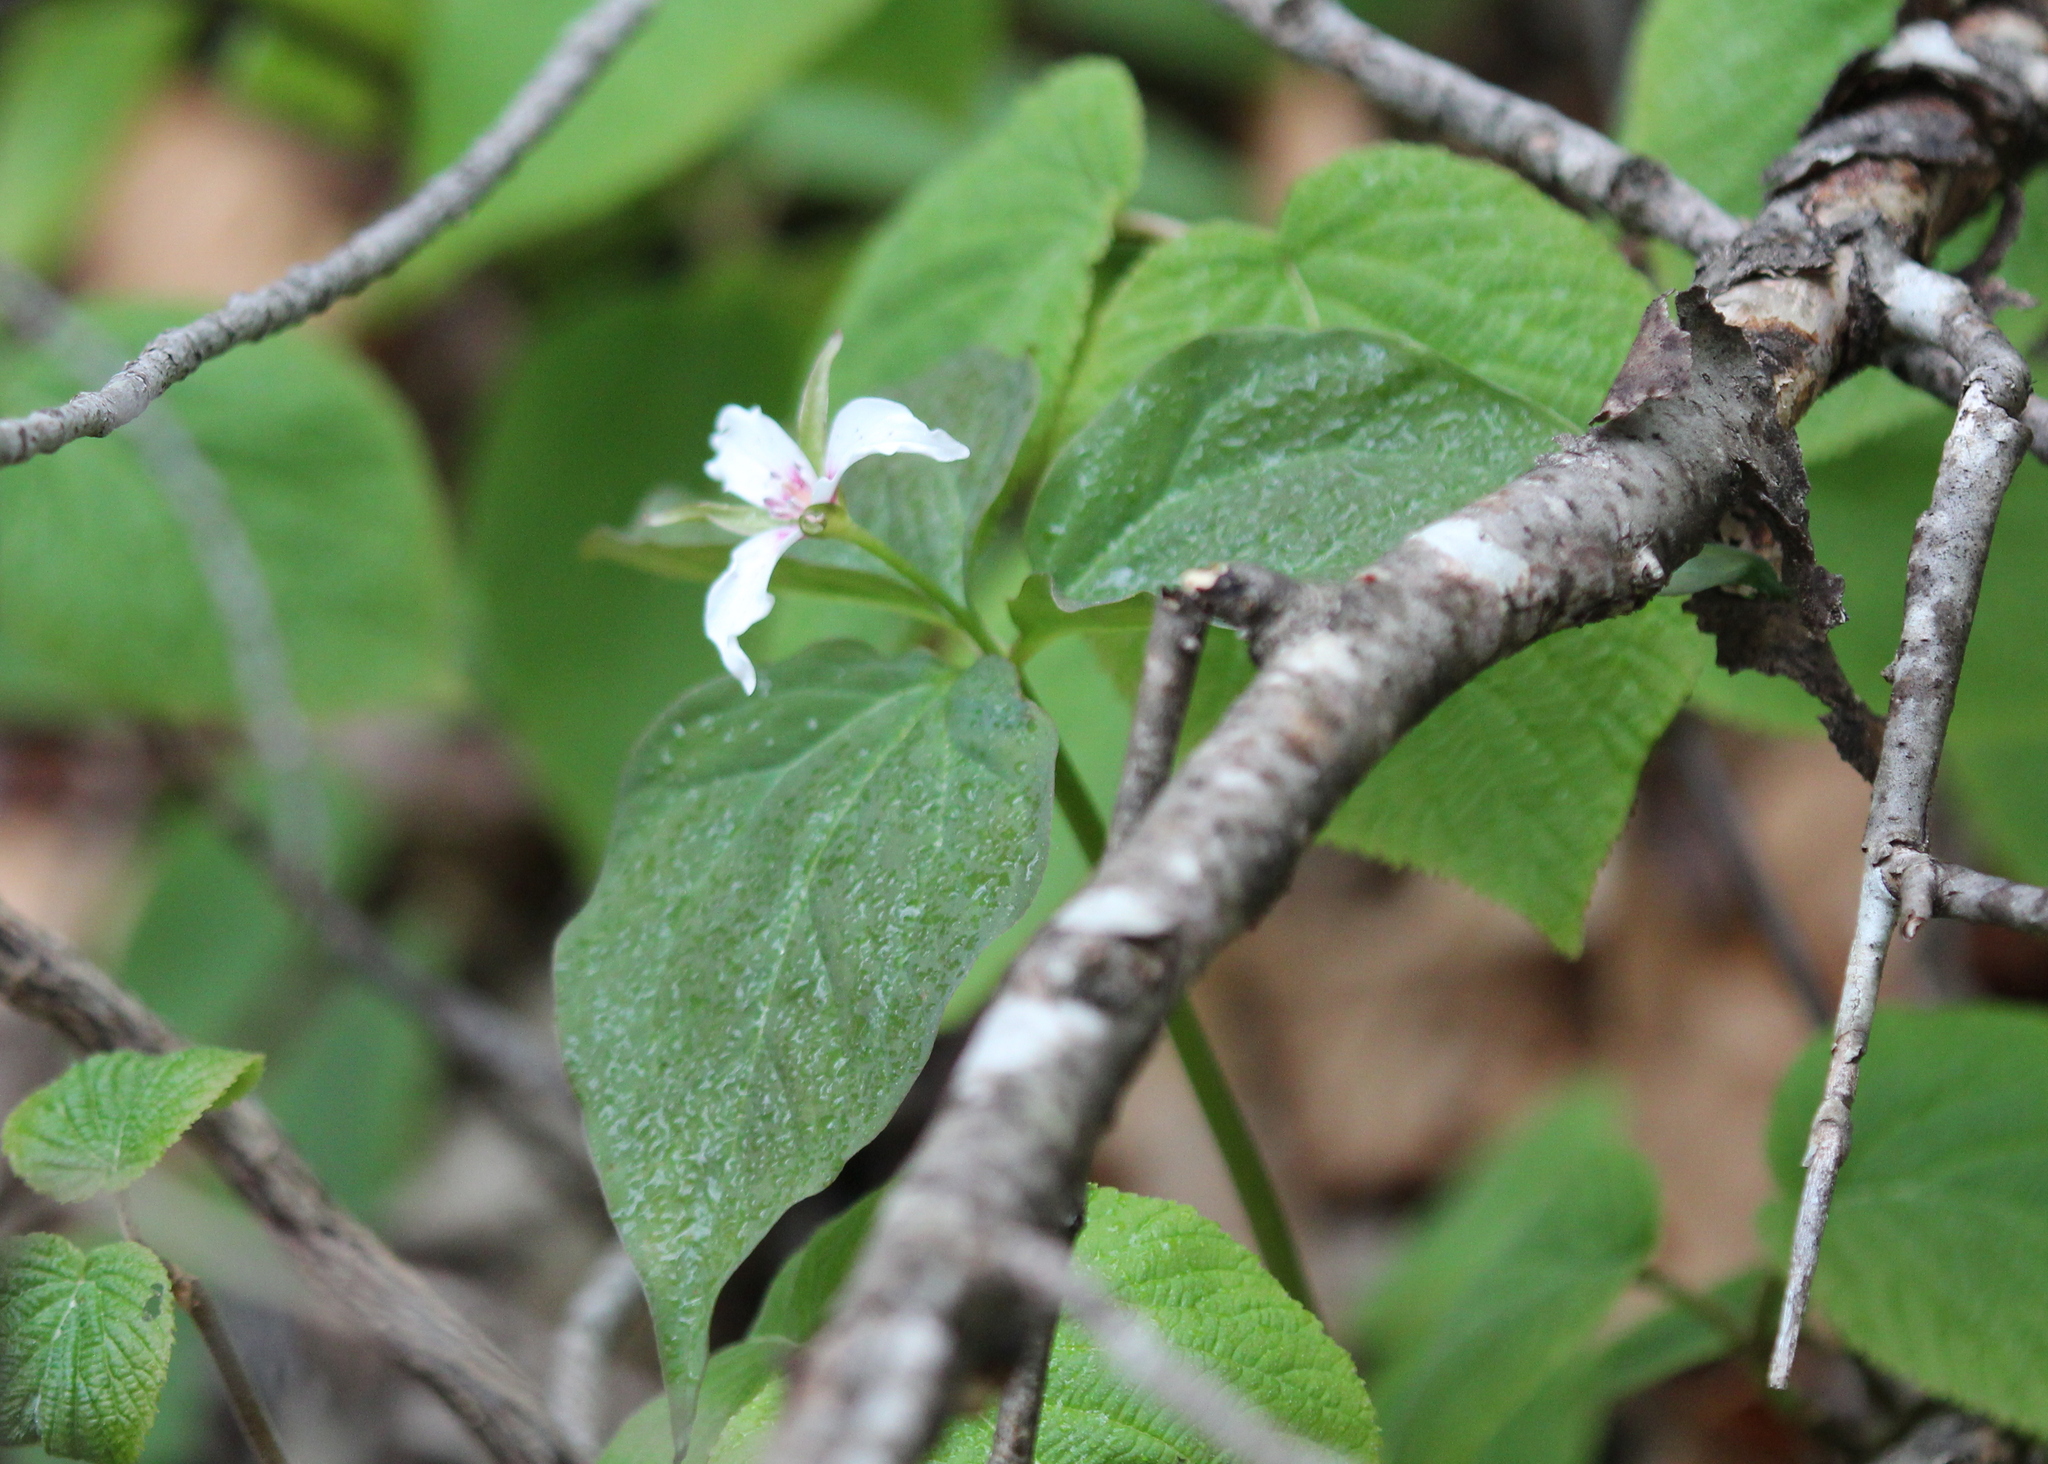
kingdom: Plantae
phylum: Tracheophyta
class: Liliopsida
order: Liliales
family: Melanthiaceae
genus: Trillium
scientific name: Trillium undulatum
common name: Paint trillium
